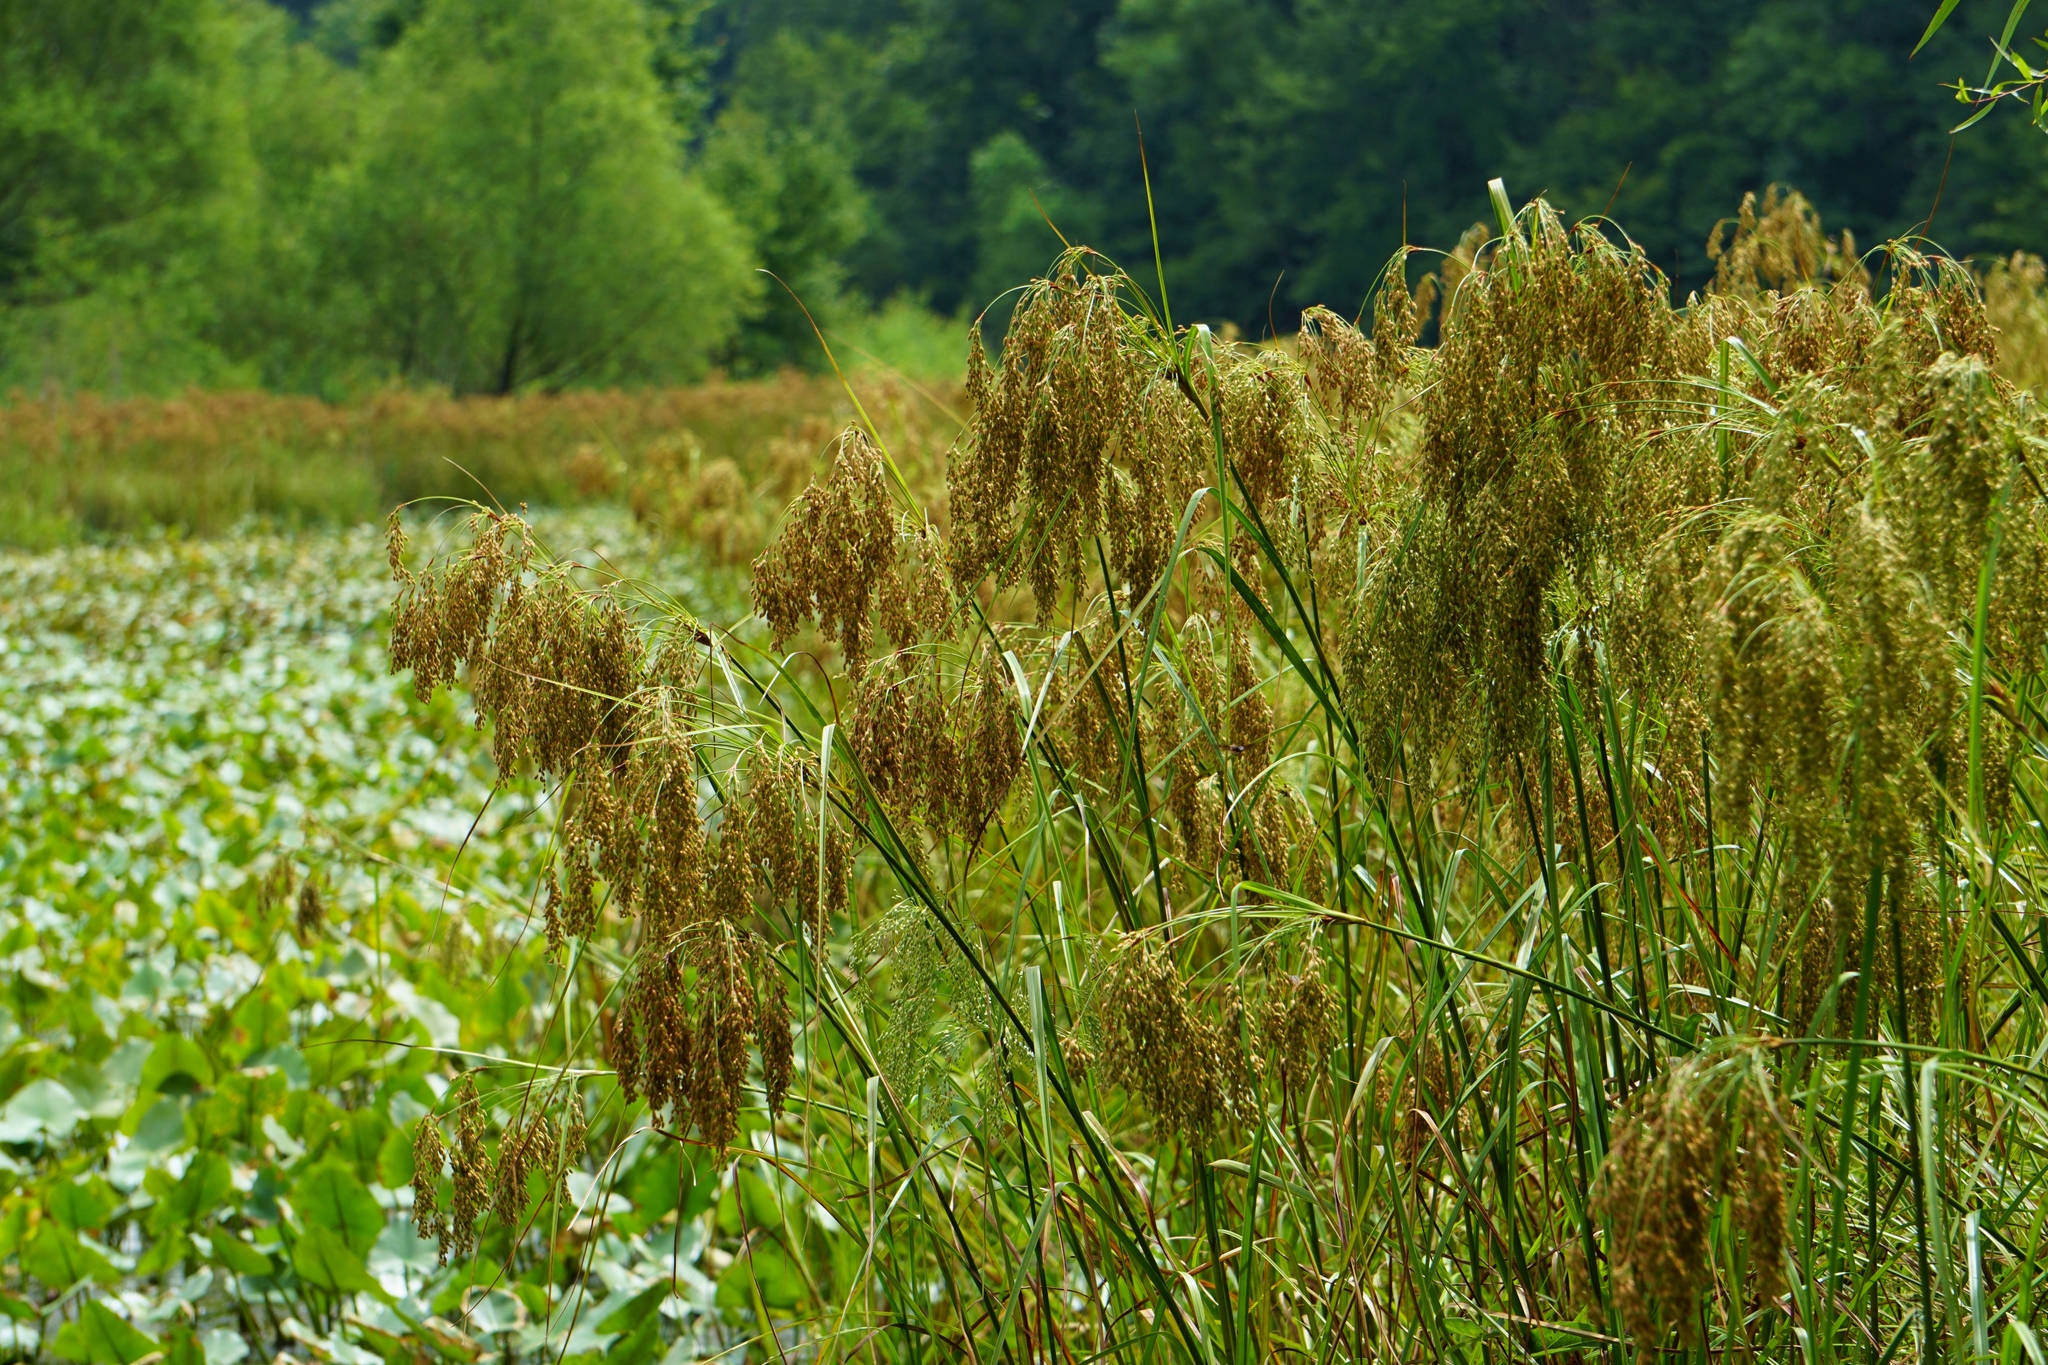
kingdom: Plantae
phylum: Tracheophyta
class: Liliopsida
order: Poales
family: Cyperaceae
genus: Scirpus
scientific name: Scirpus cyperinus
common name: Black-sheathed bulrush
